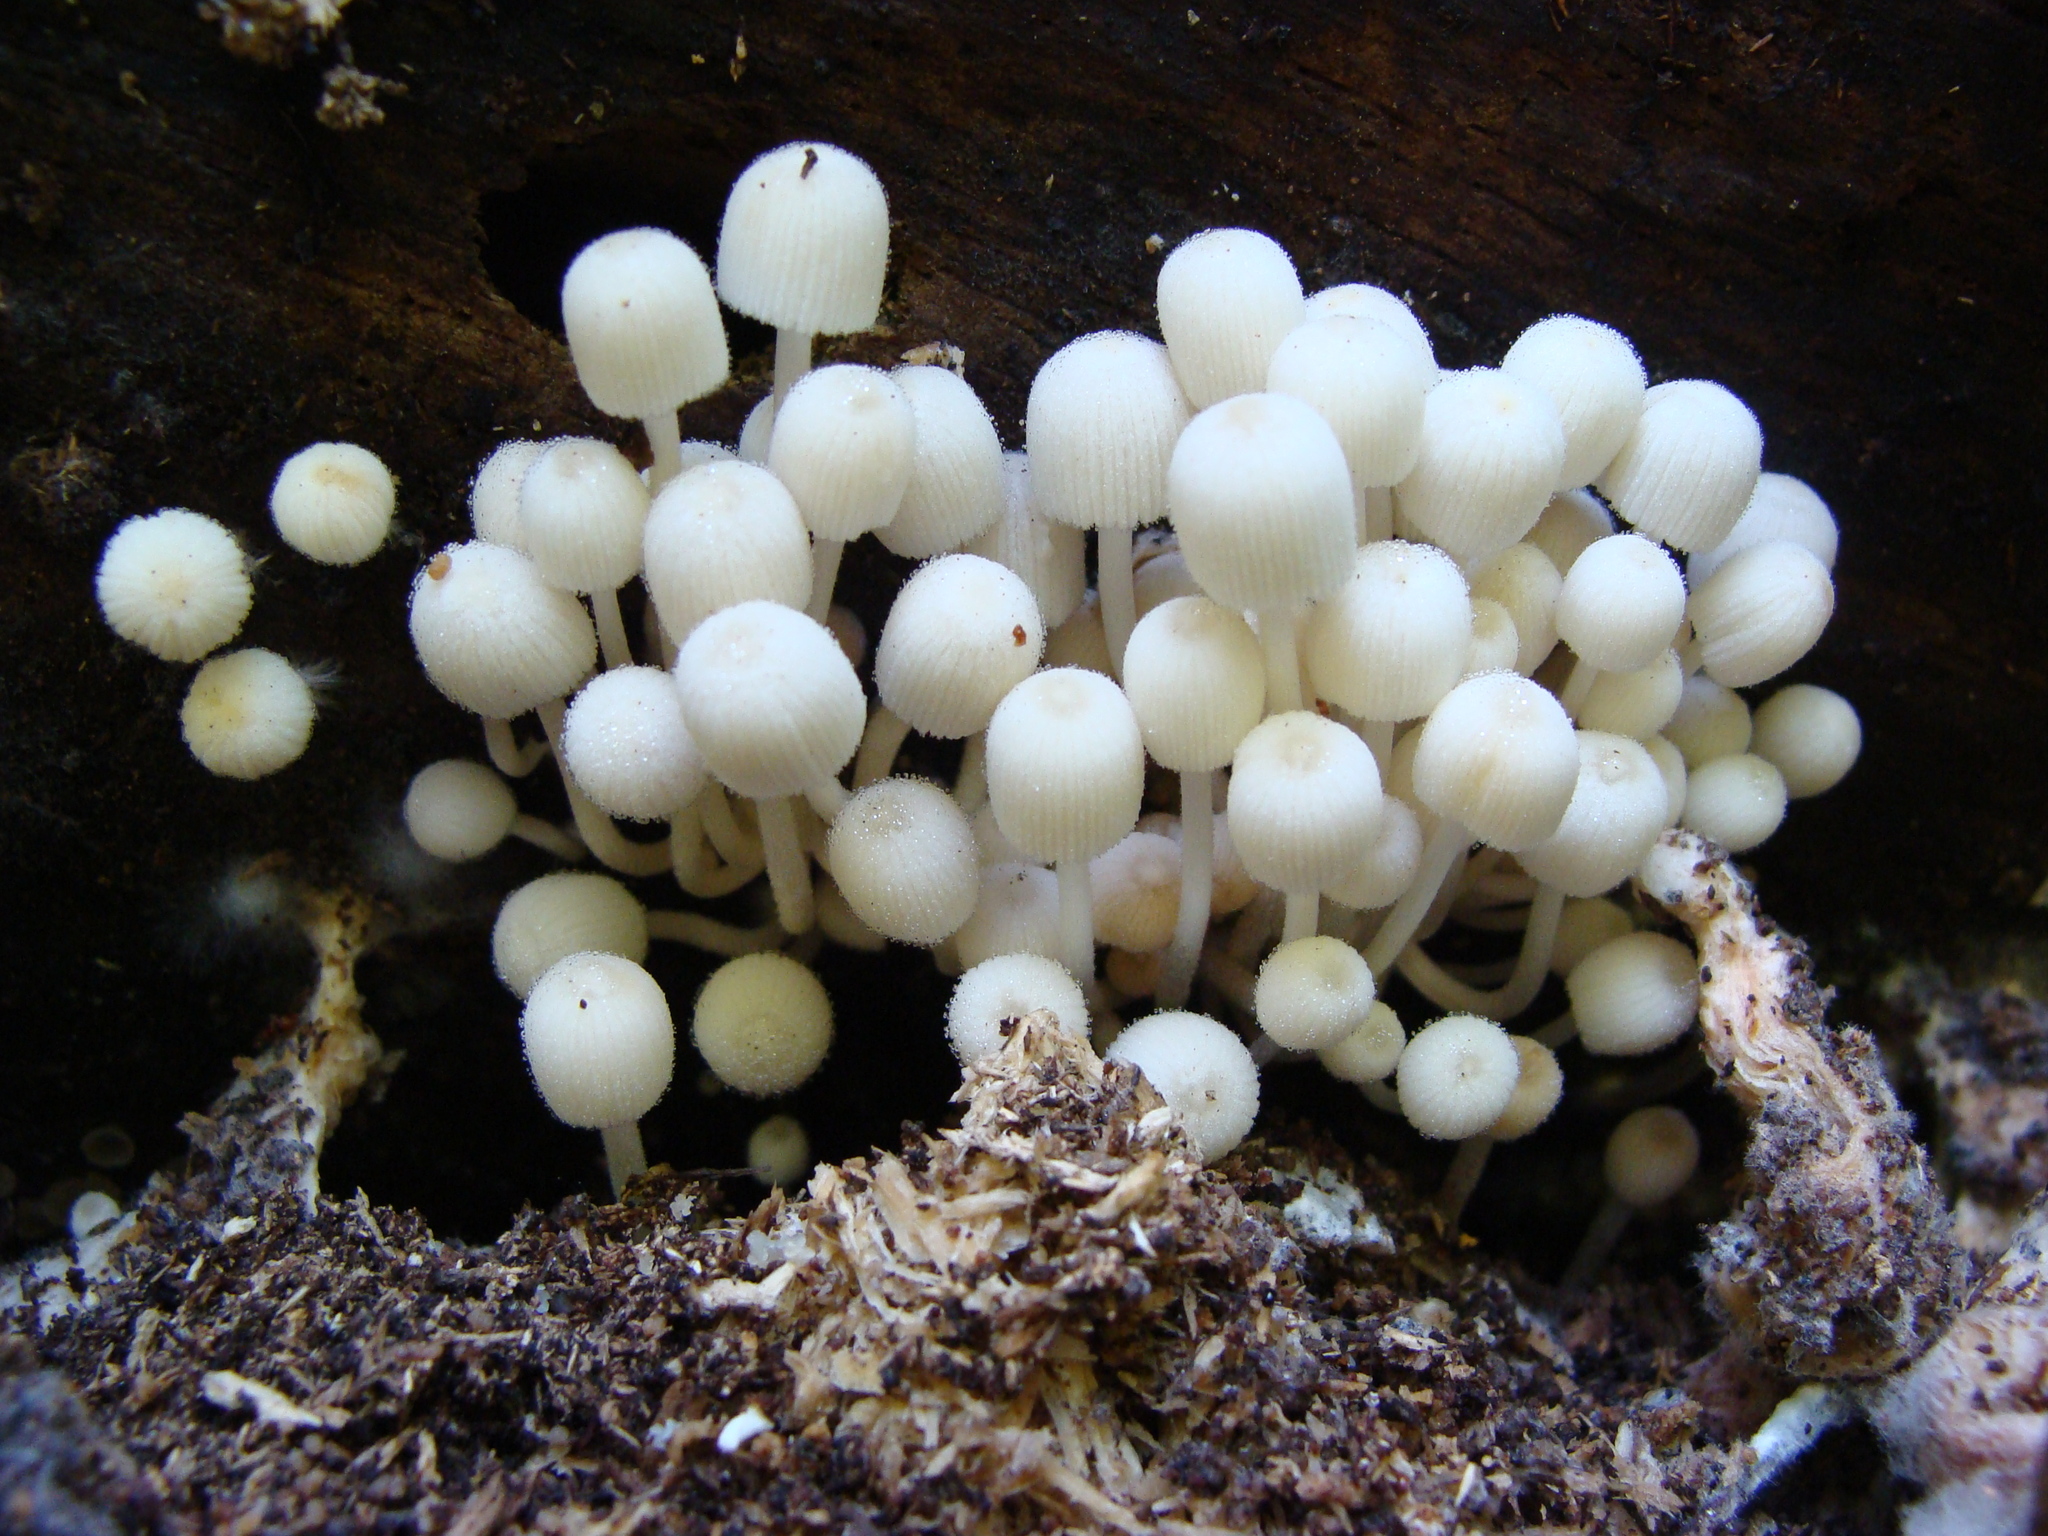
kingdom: Fungi
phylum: Basidiomycota
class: Agaricomycetes
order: Agaricales
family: Psathyrellaceae
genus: Coprinellus
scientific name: Coprinellus disseminatus
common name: Fairies' bonnets
